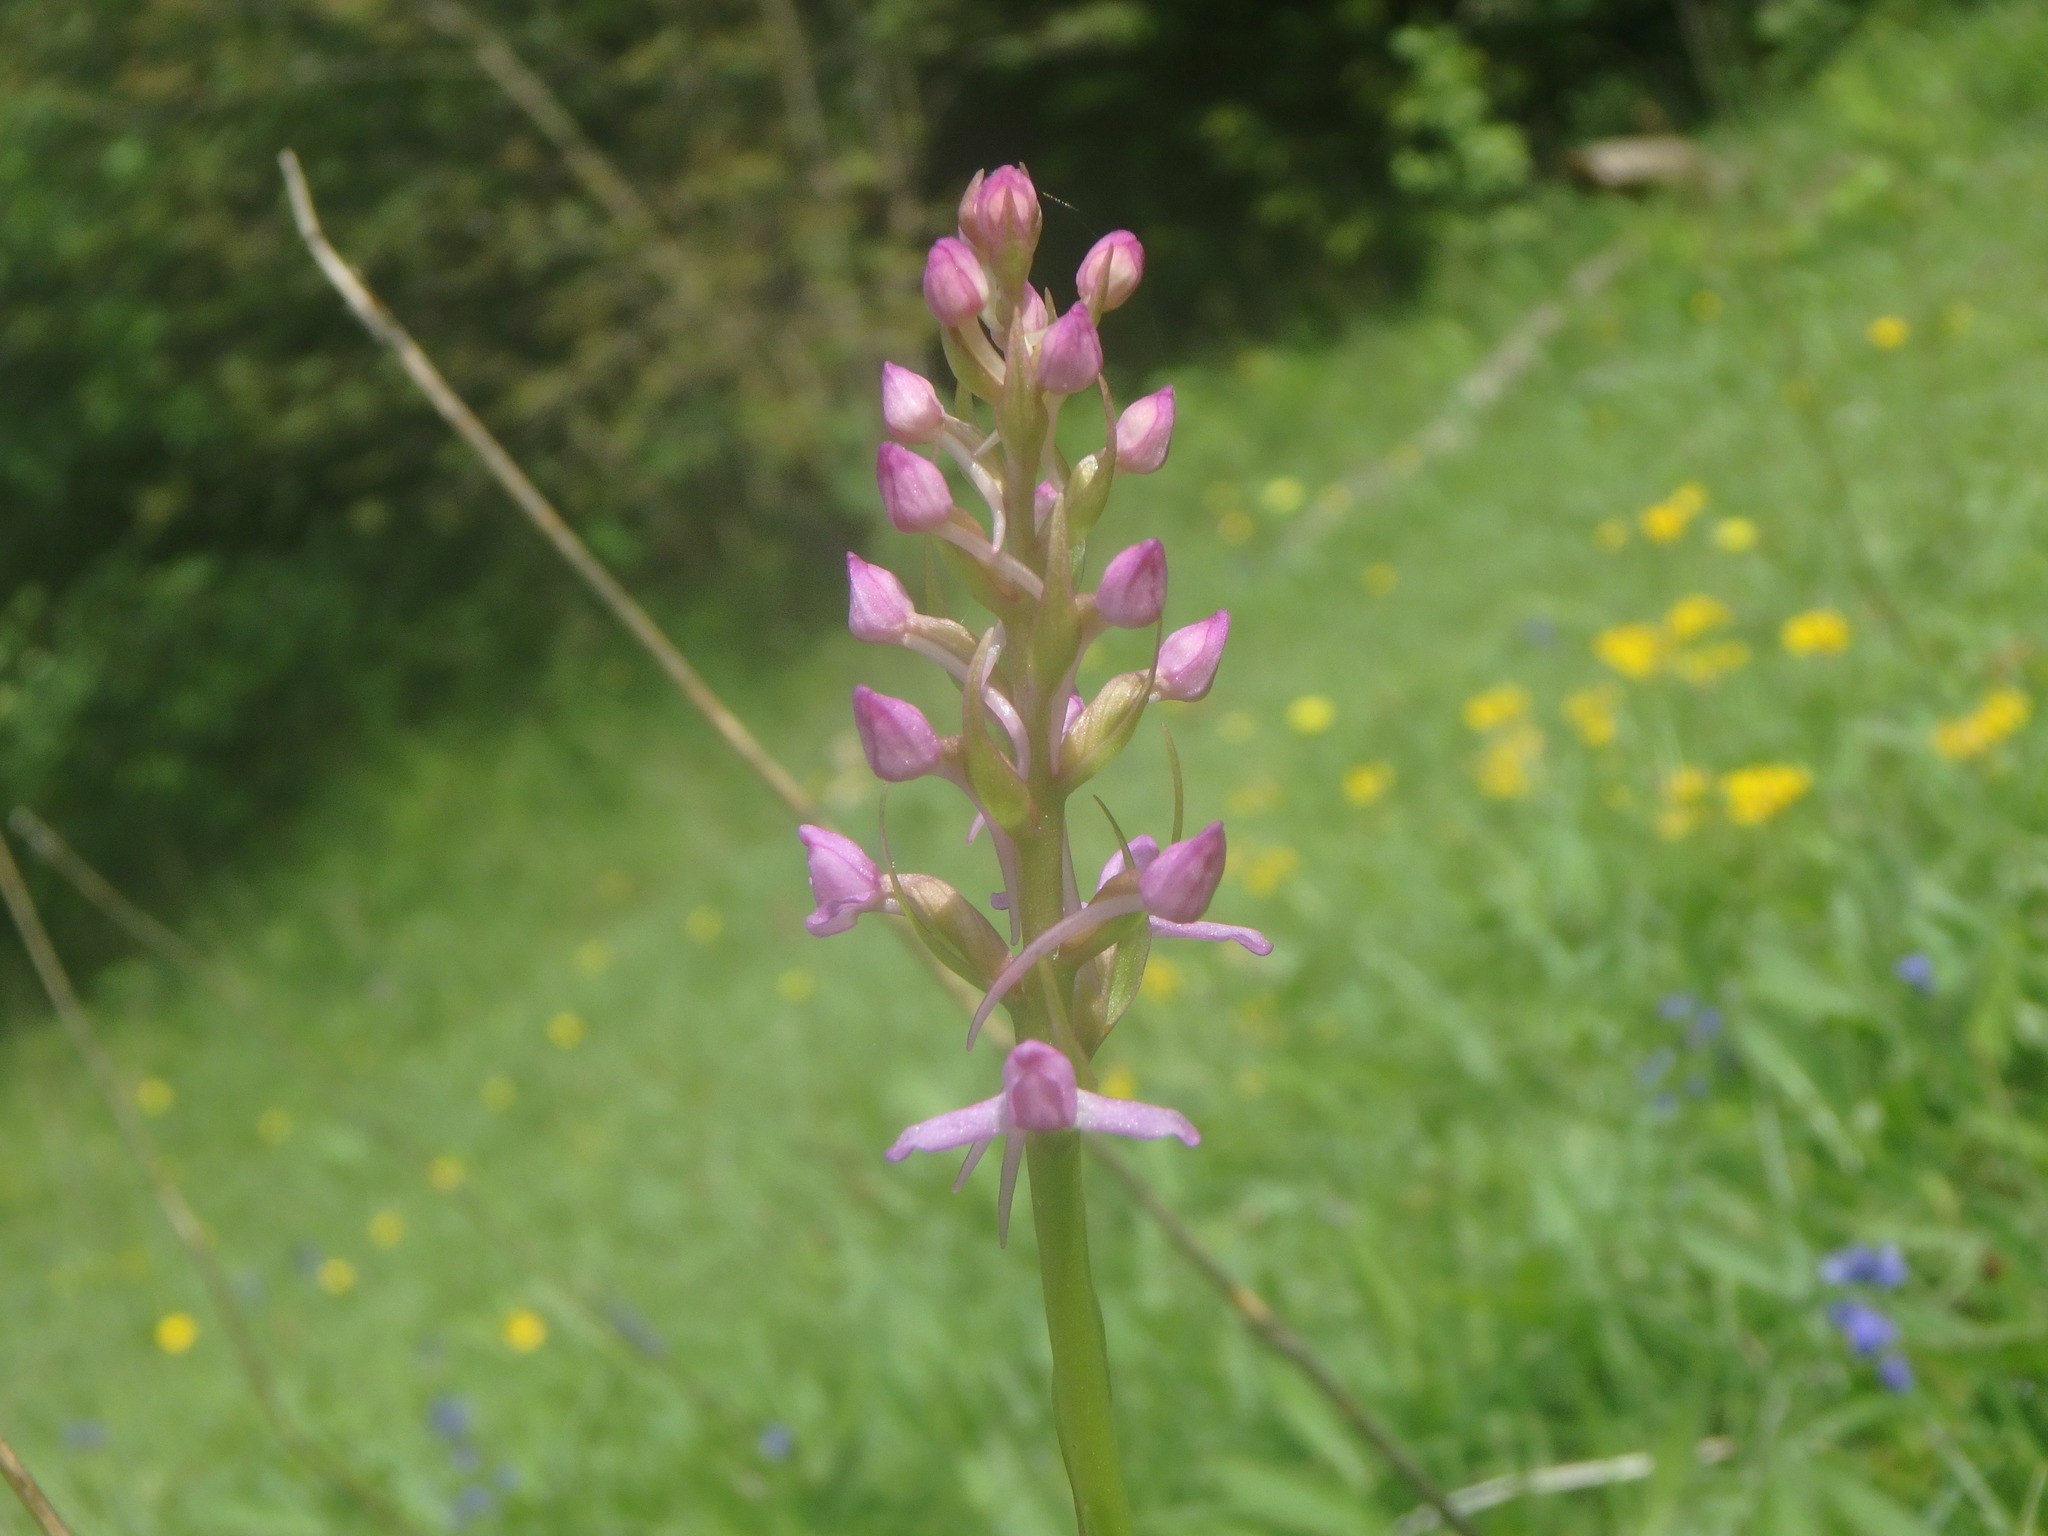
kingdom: Plantae
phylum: Tracheophyta
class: Liliopsida
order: Asparagales
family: Orchidaceae
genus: Gymnadenia
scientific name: Gymnadenia conopsea
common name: Fragrant orchid
